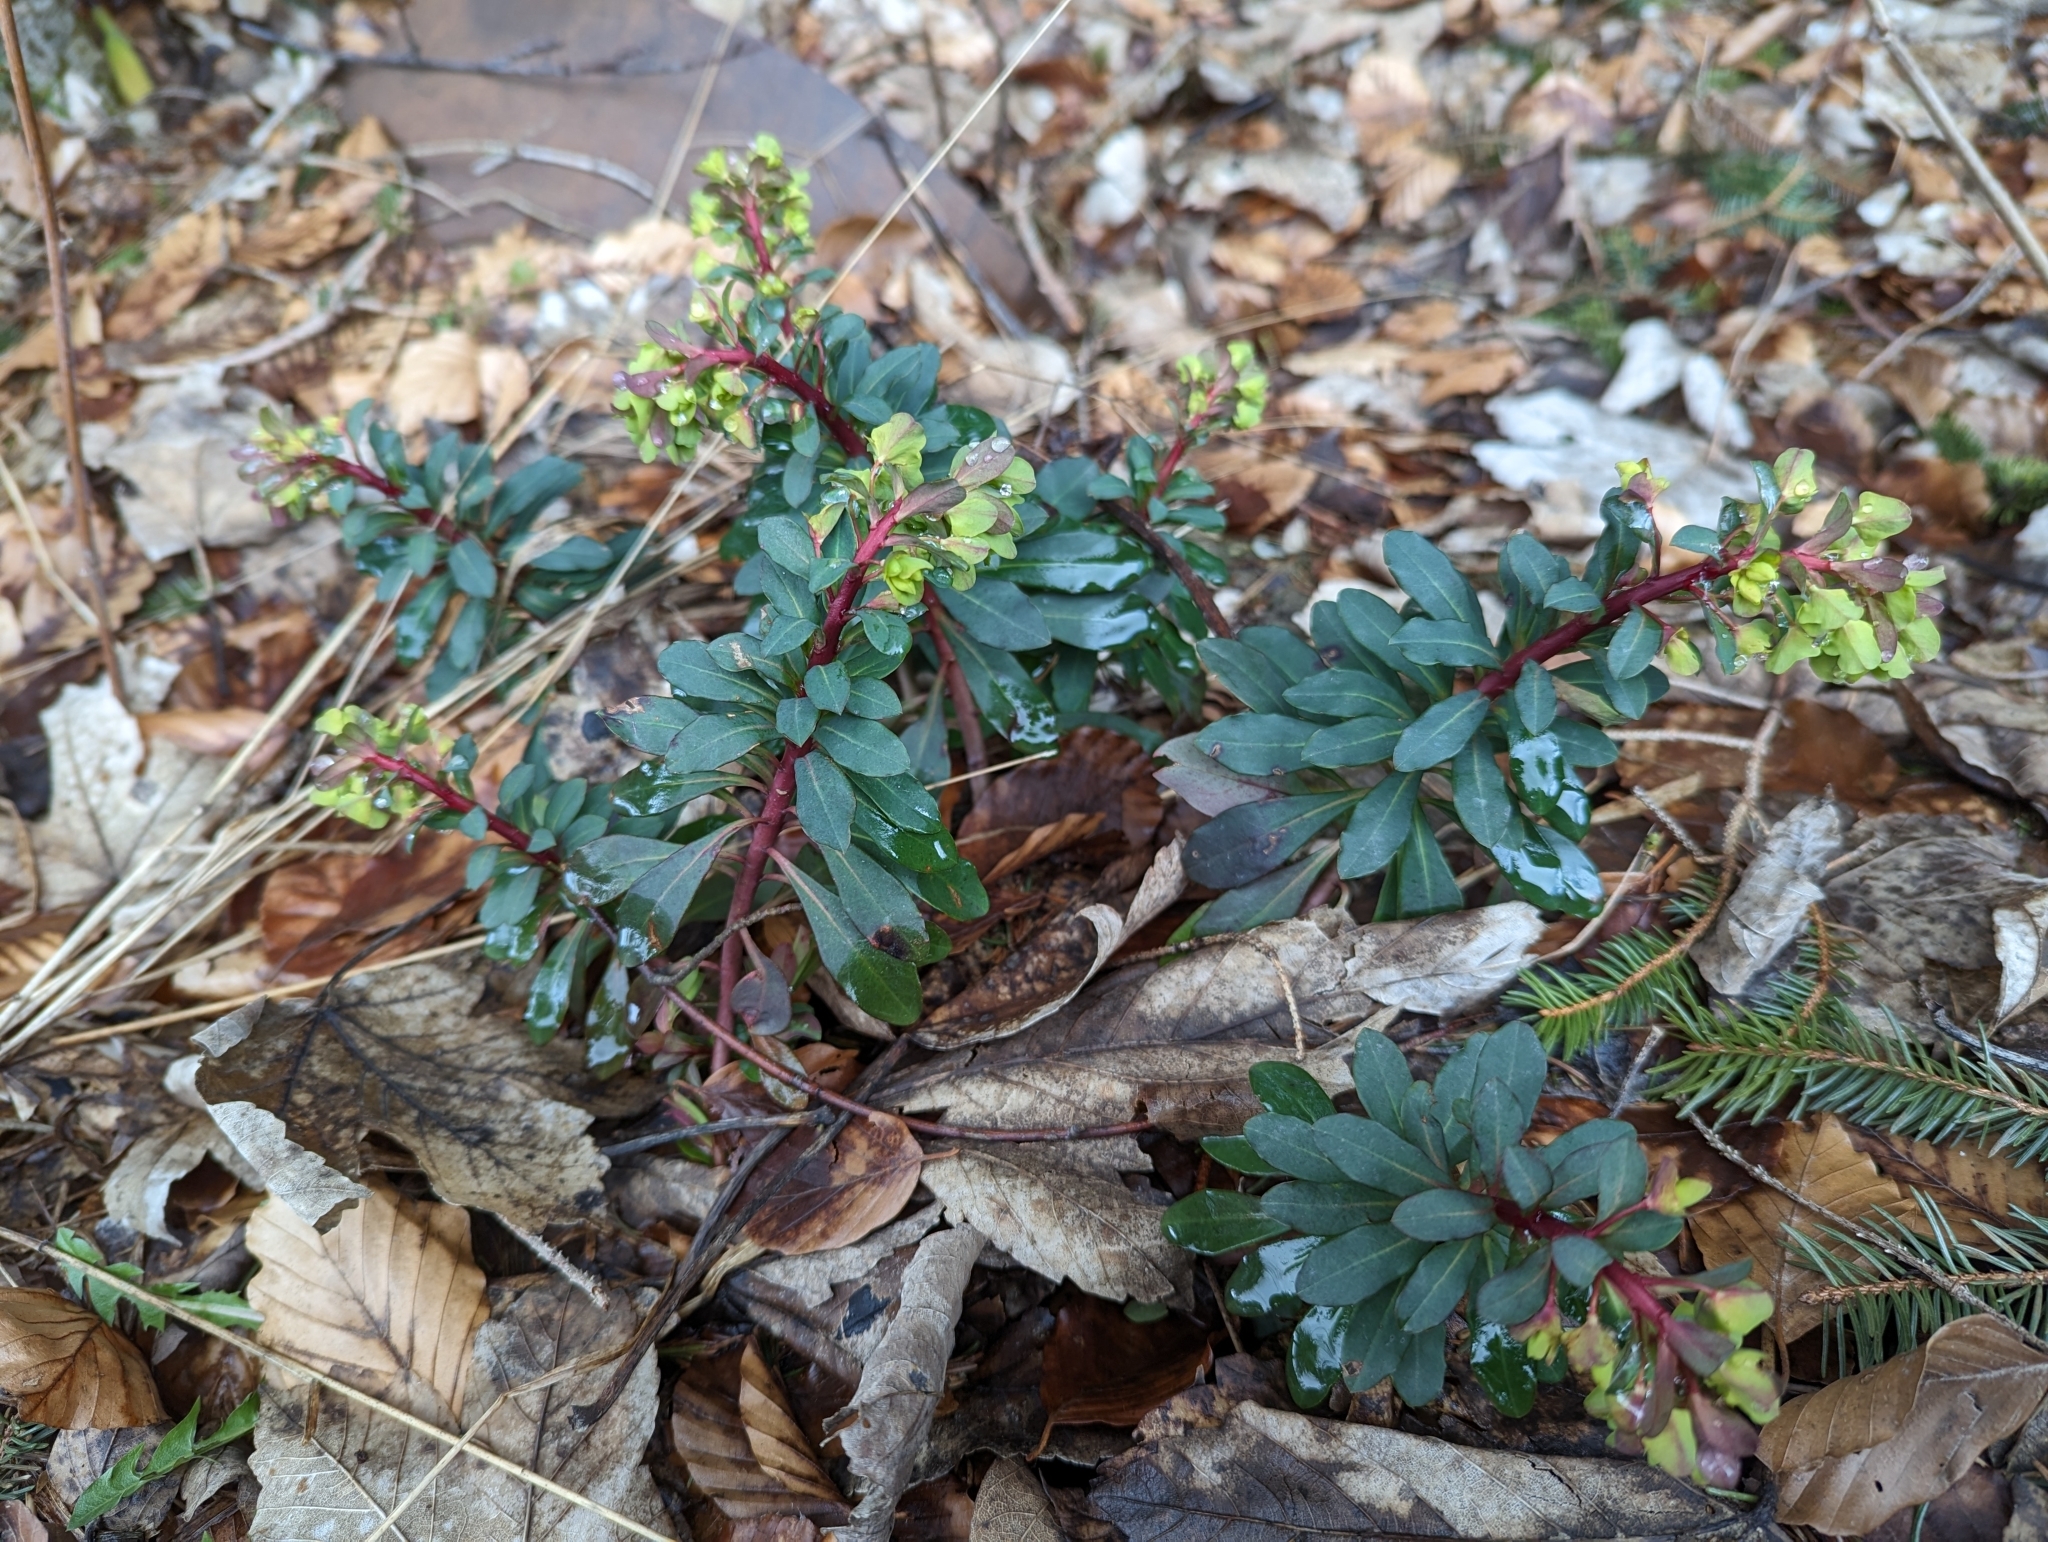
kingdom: Plantae
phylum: Tracheophyta
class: Magnoliopsida
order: Malpighiales
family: Euphorbiaceae
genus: Euphorbia
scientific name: Euphorbia amygdaloides
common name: Wood spurge
